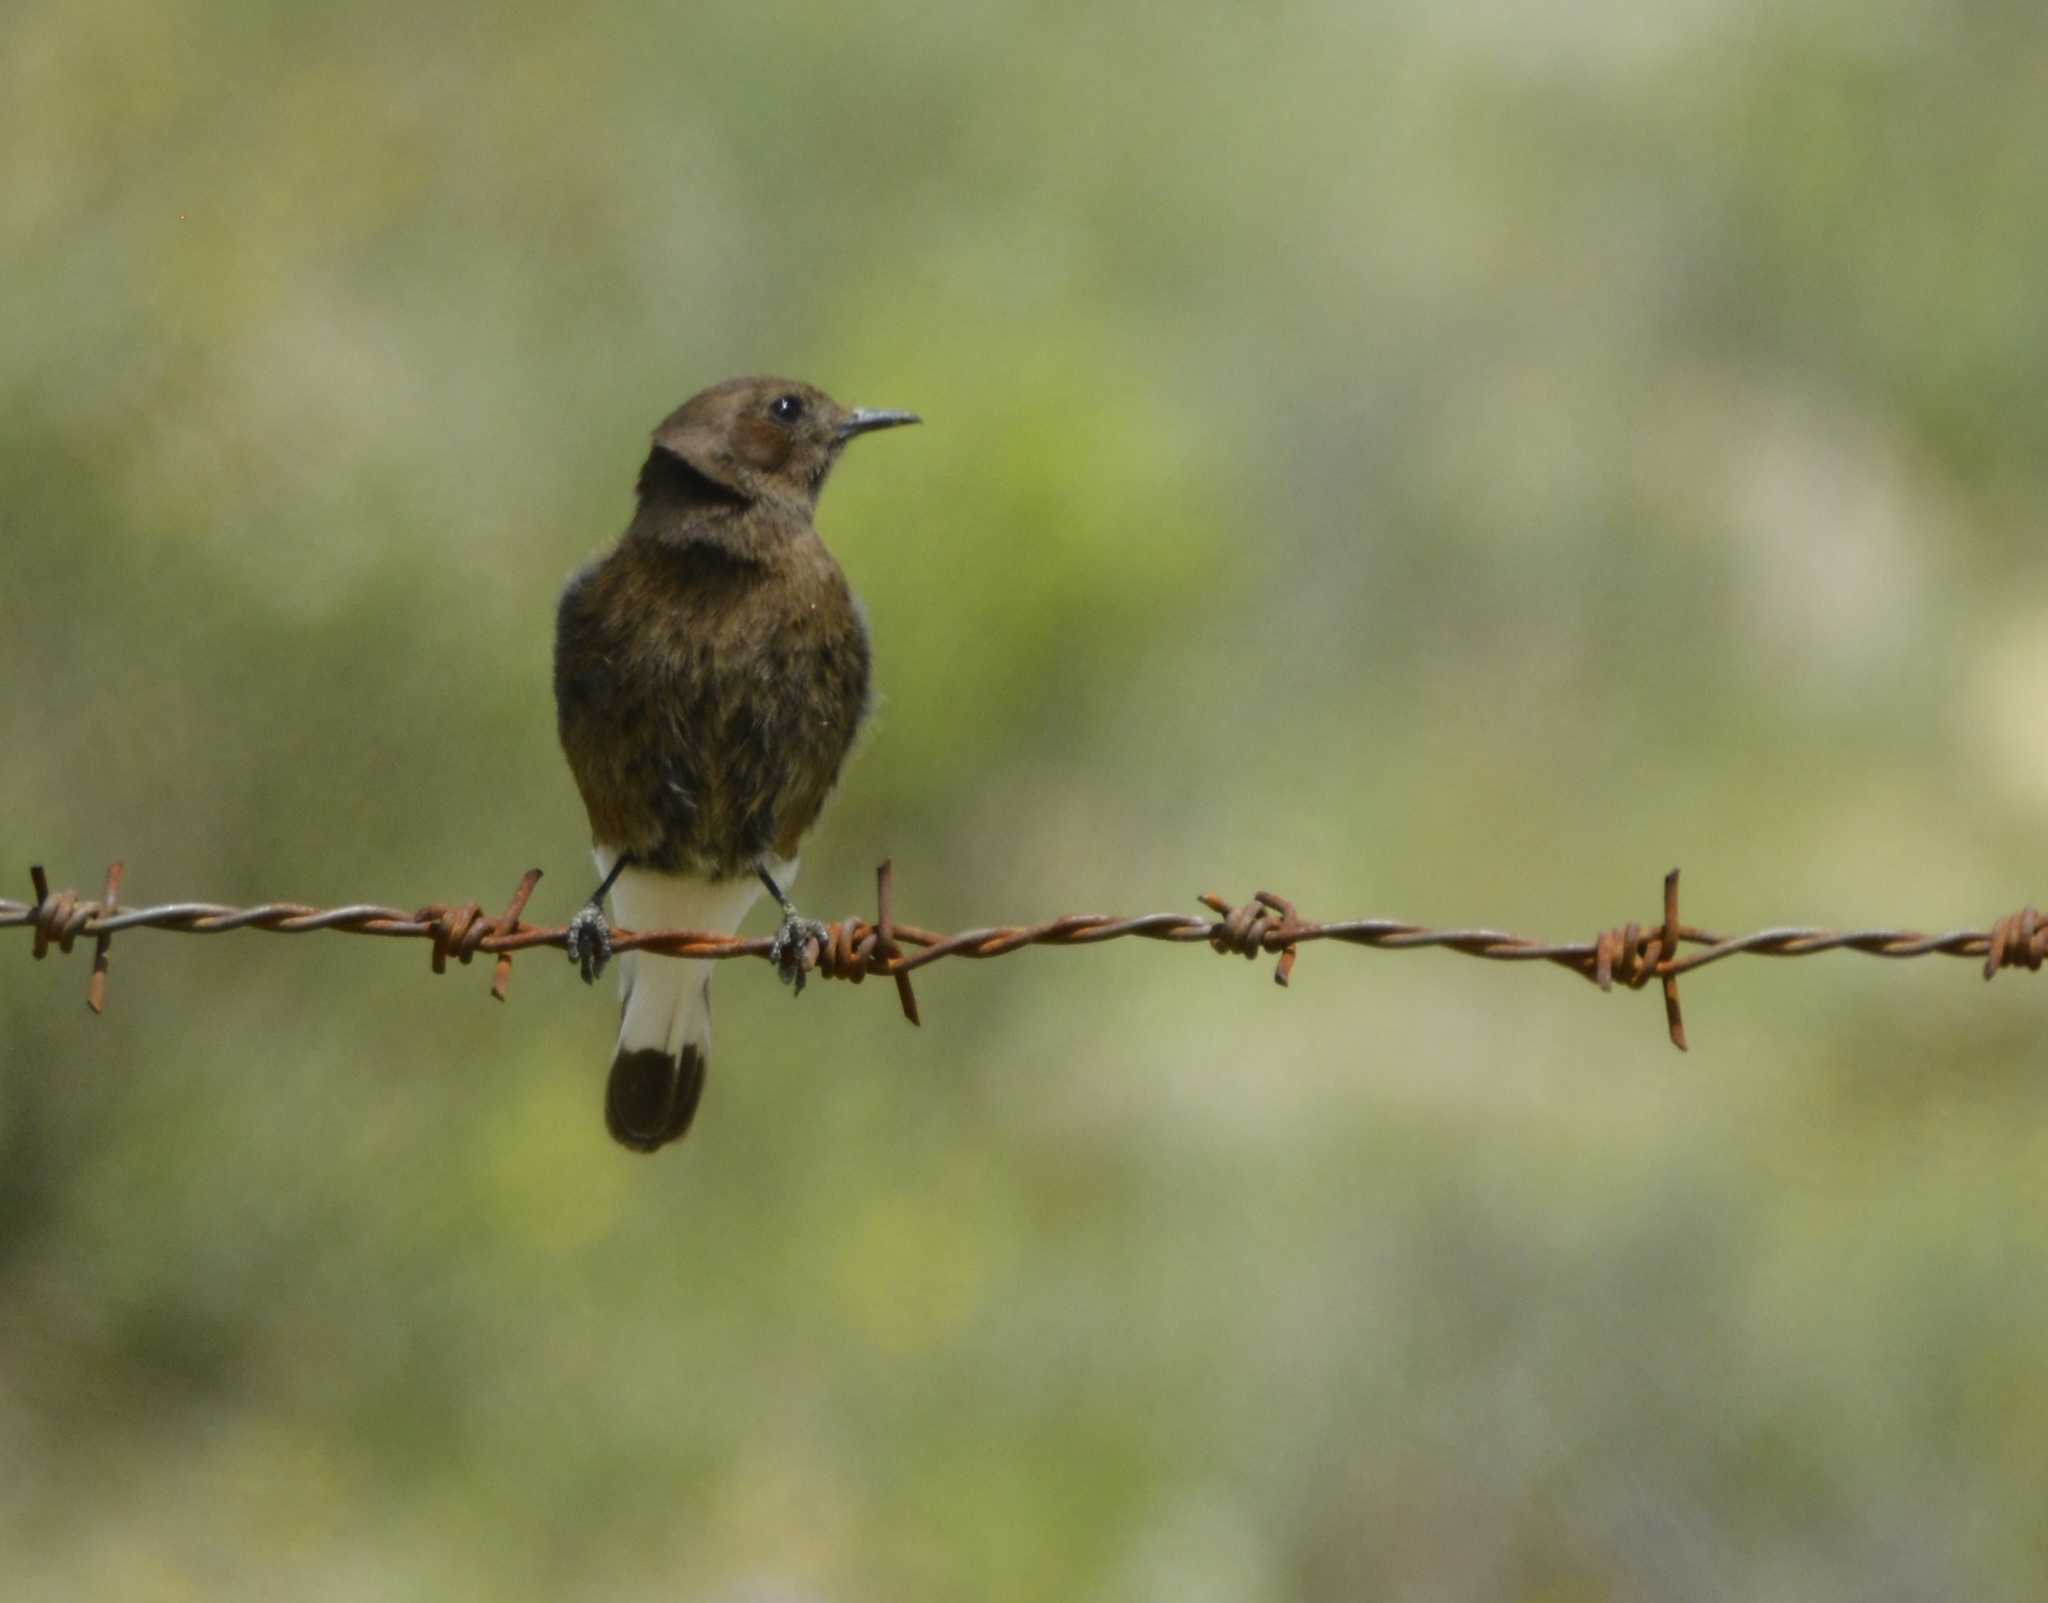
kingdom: Animalia
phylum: Chordata
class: Aves
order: Passeriformes
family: Muscicapidae
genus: Oenanthe
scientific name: Oenanthe leucura
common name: Black wheatear
